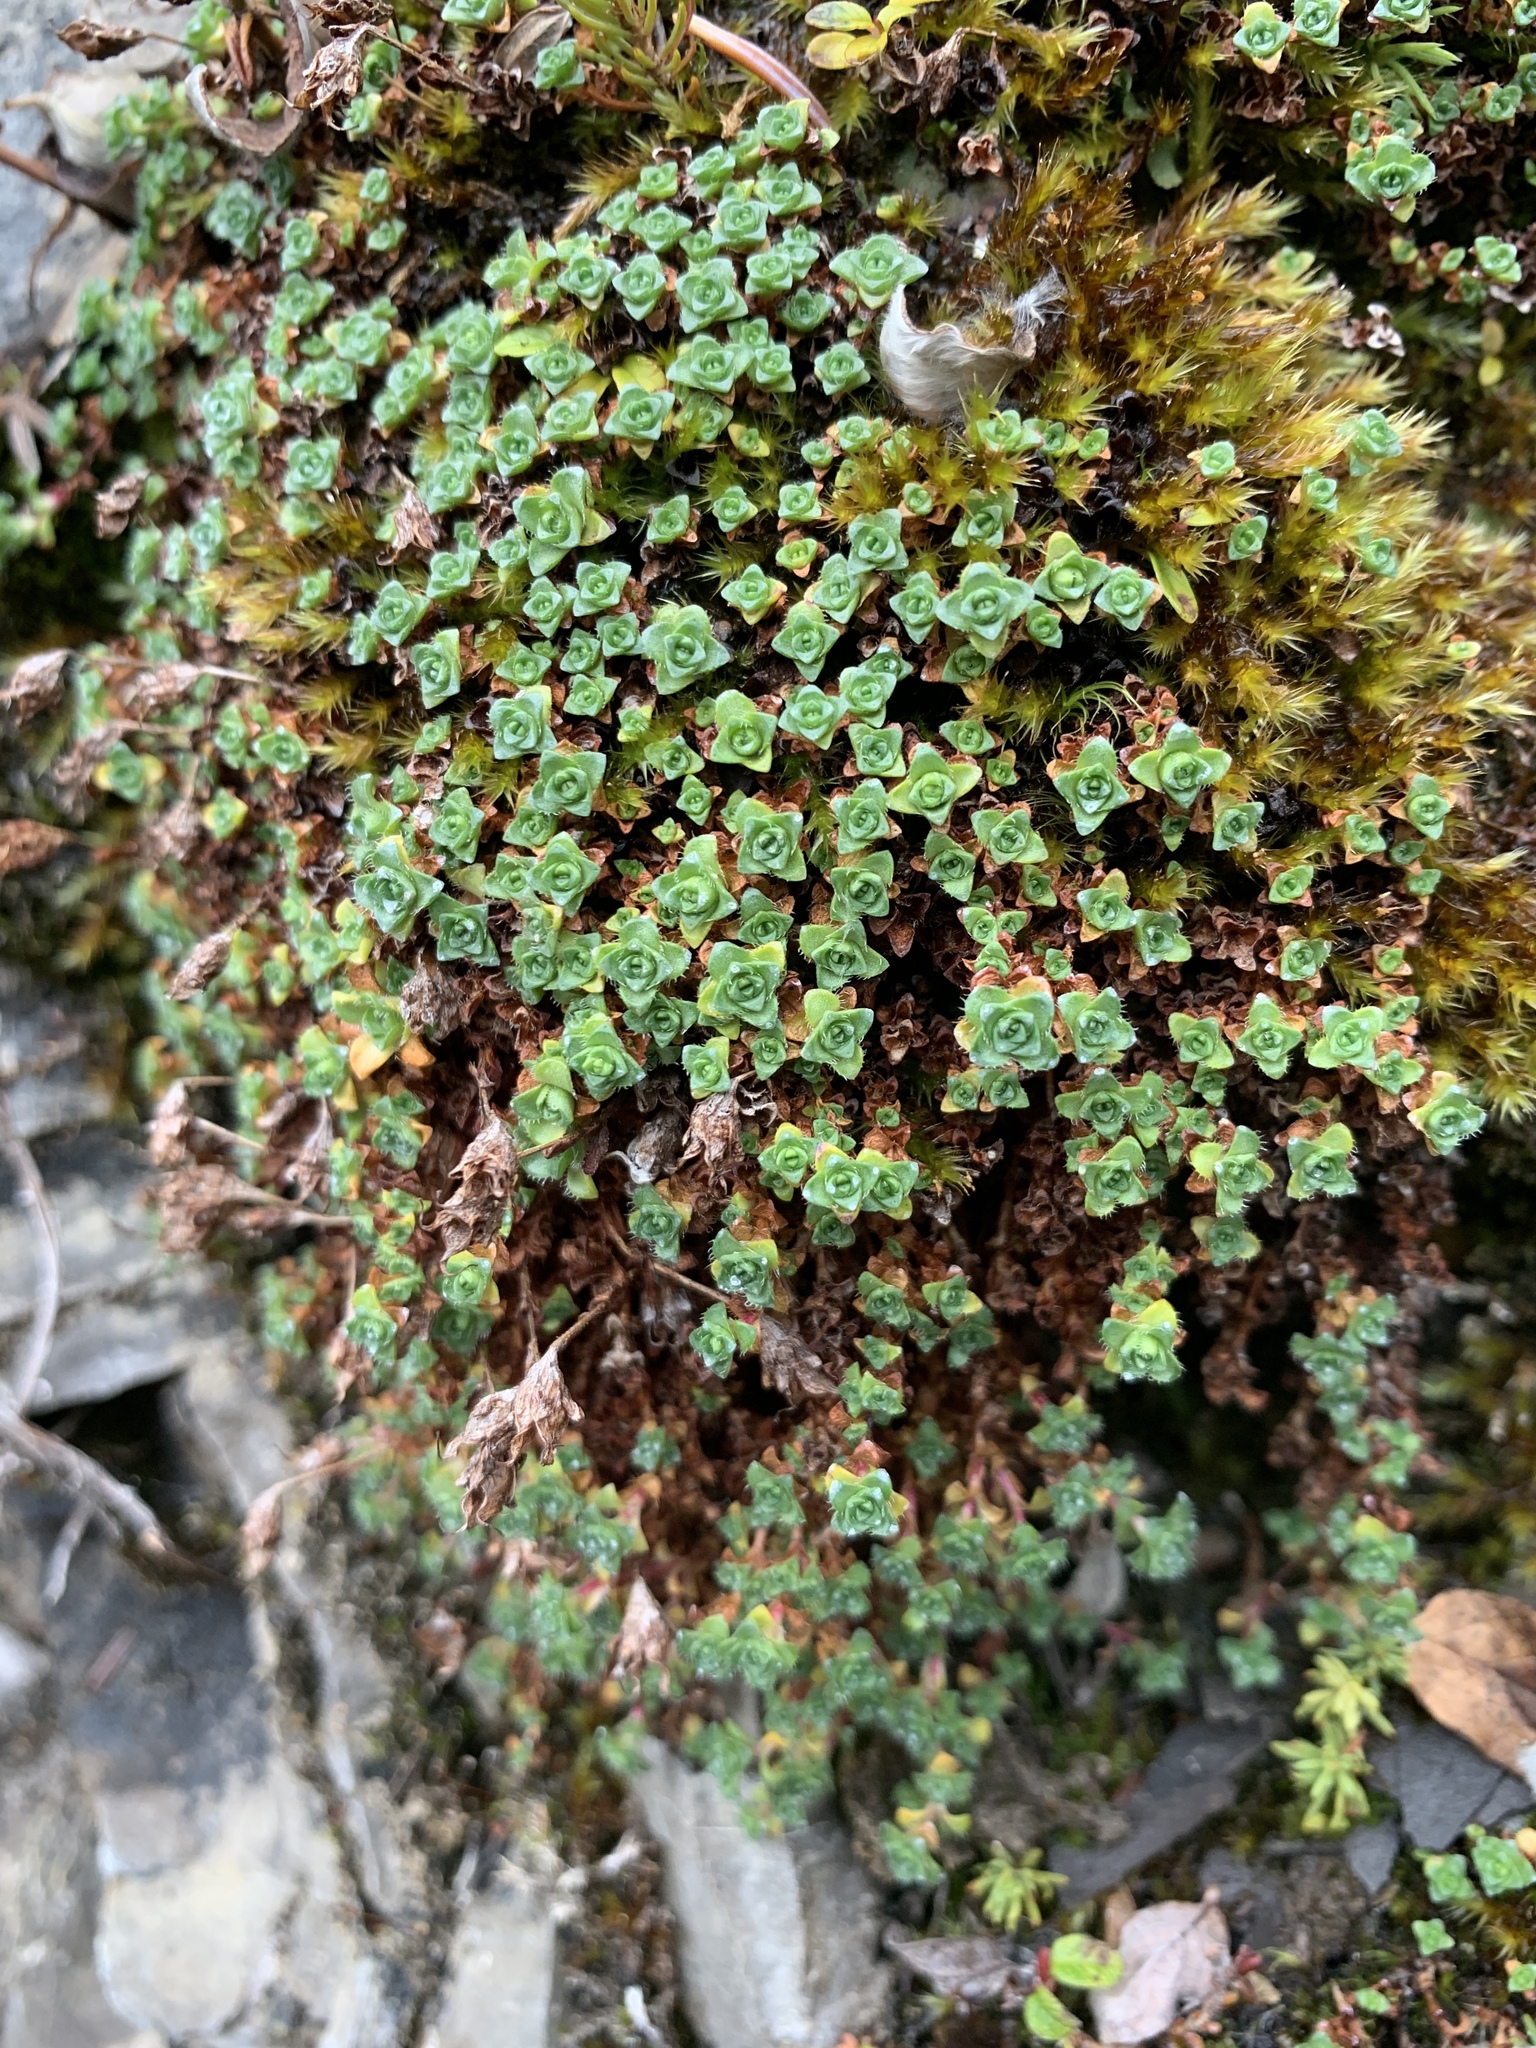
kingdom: Plantae
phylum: Tracheophyta
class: Magnoliopsida
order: Saxifragales
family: Saxifragaceae
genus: Saxifraga
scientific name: Saxifraga oppositifolia
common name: Purple saxifrage
